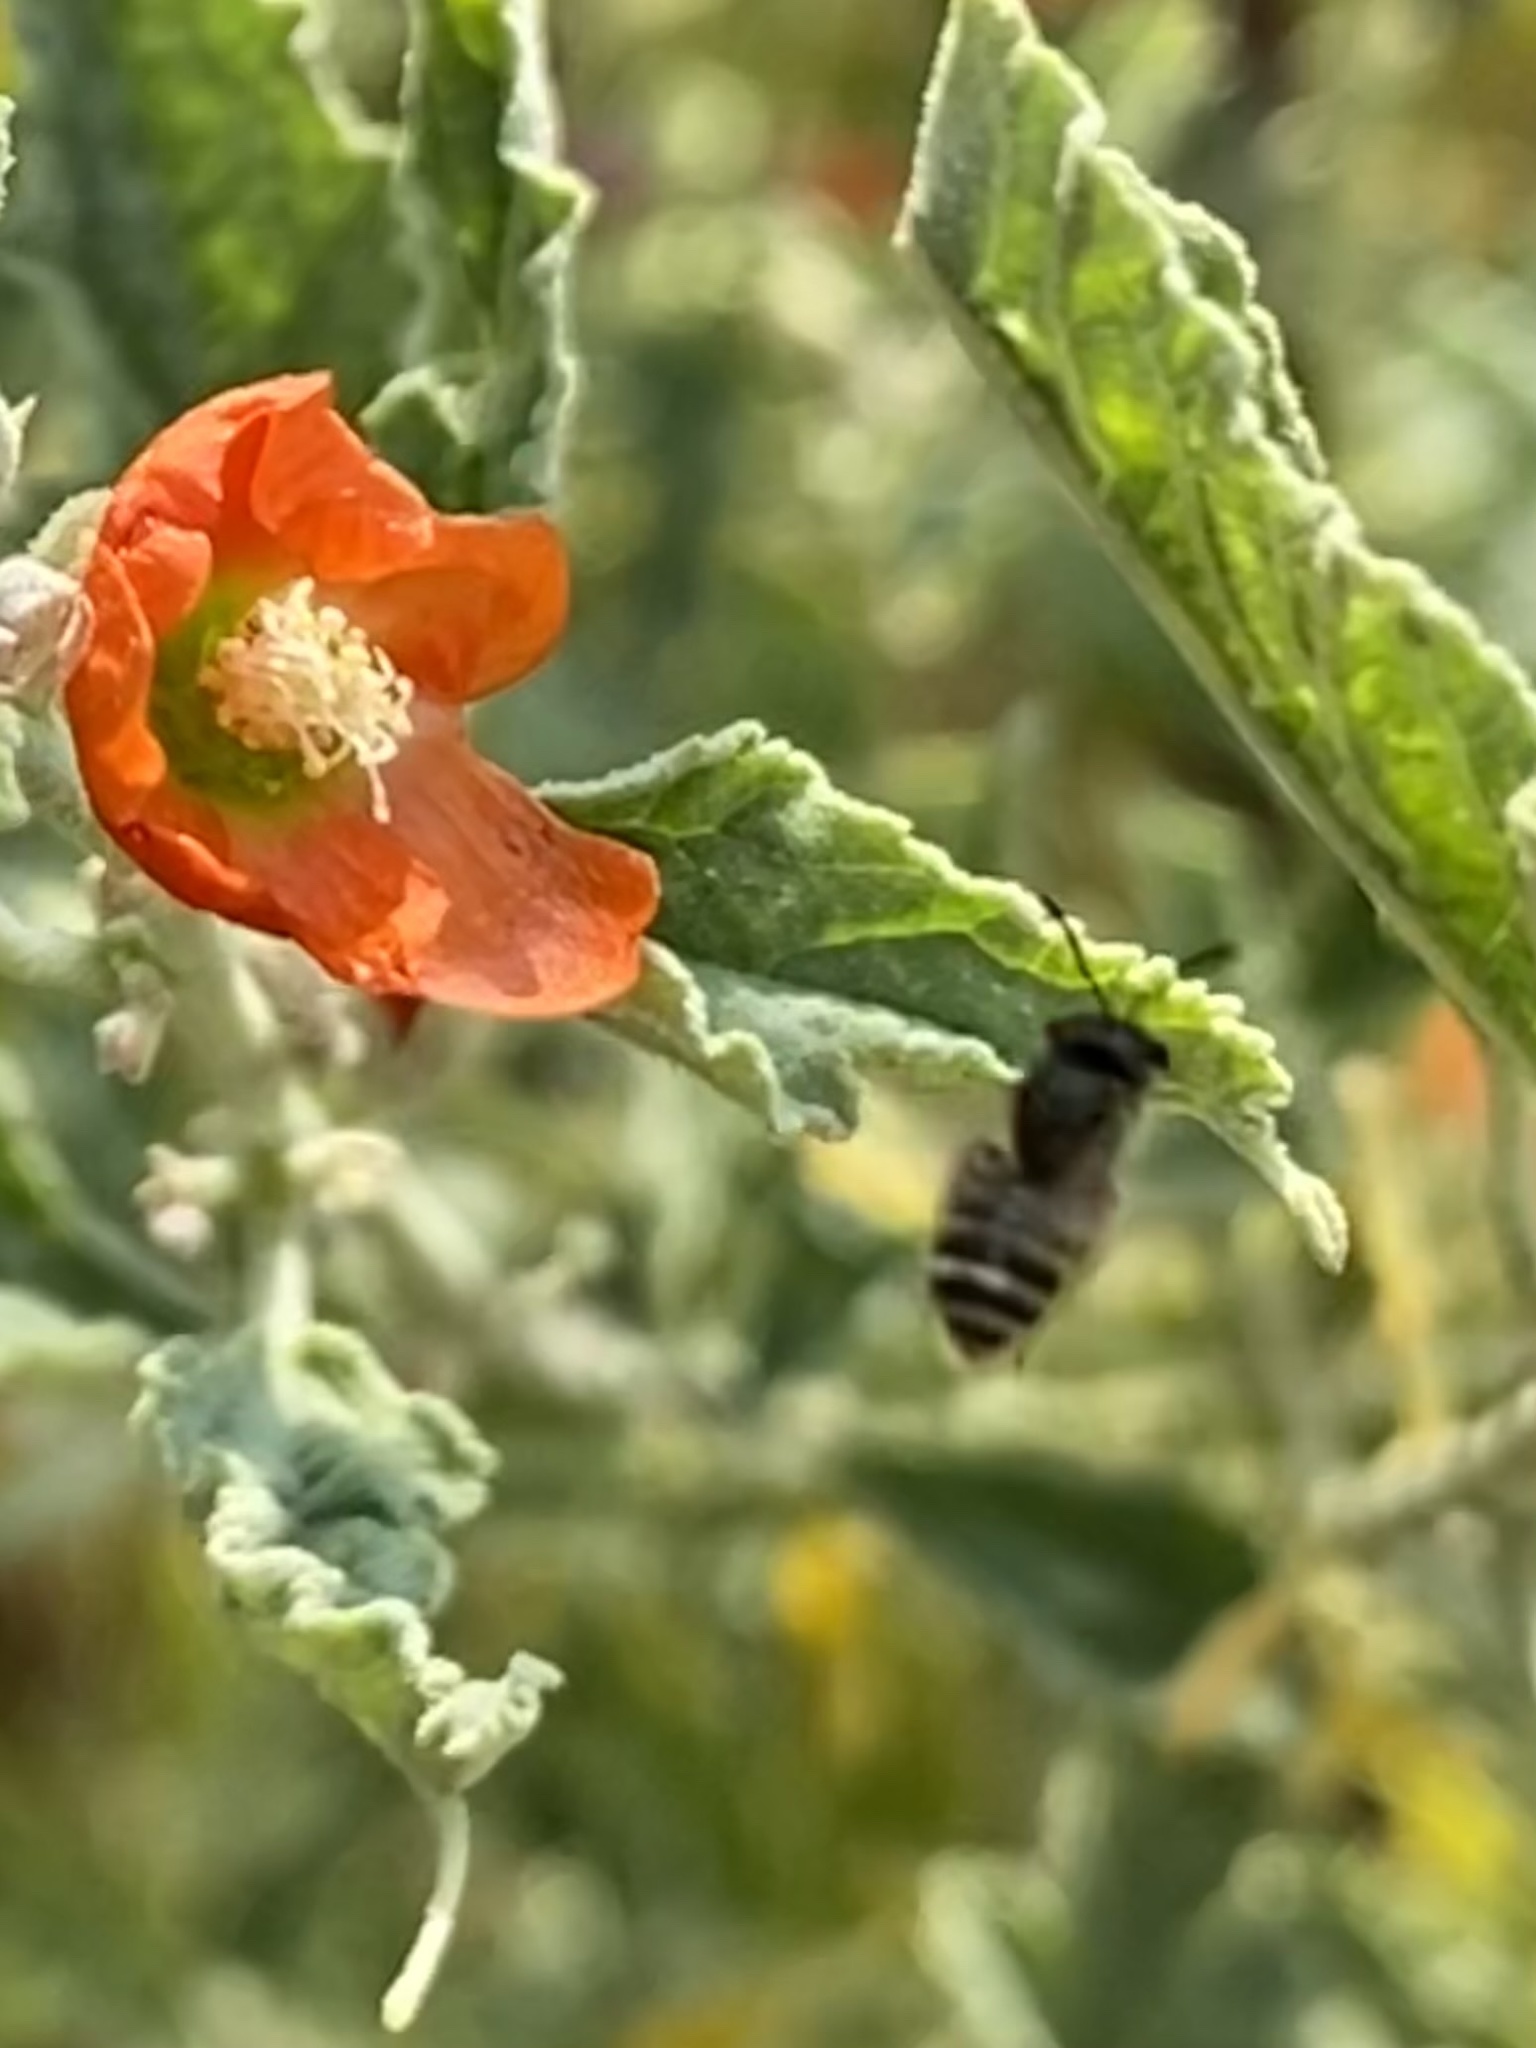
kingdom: Animalia
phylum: Arthropoda
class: Insecta
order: Hymenoptera
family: Halictidae
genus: Halictus
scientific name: Halictus tripartitus
